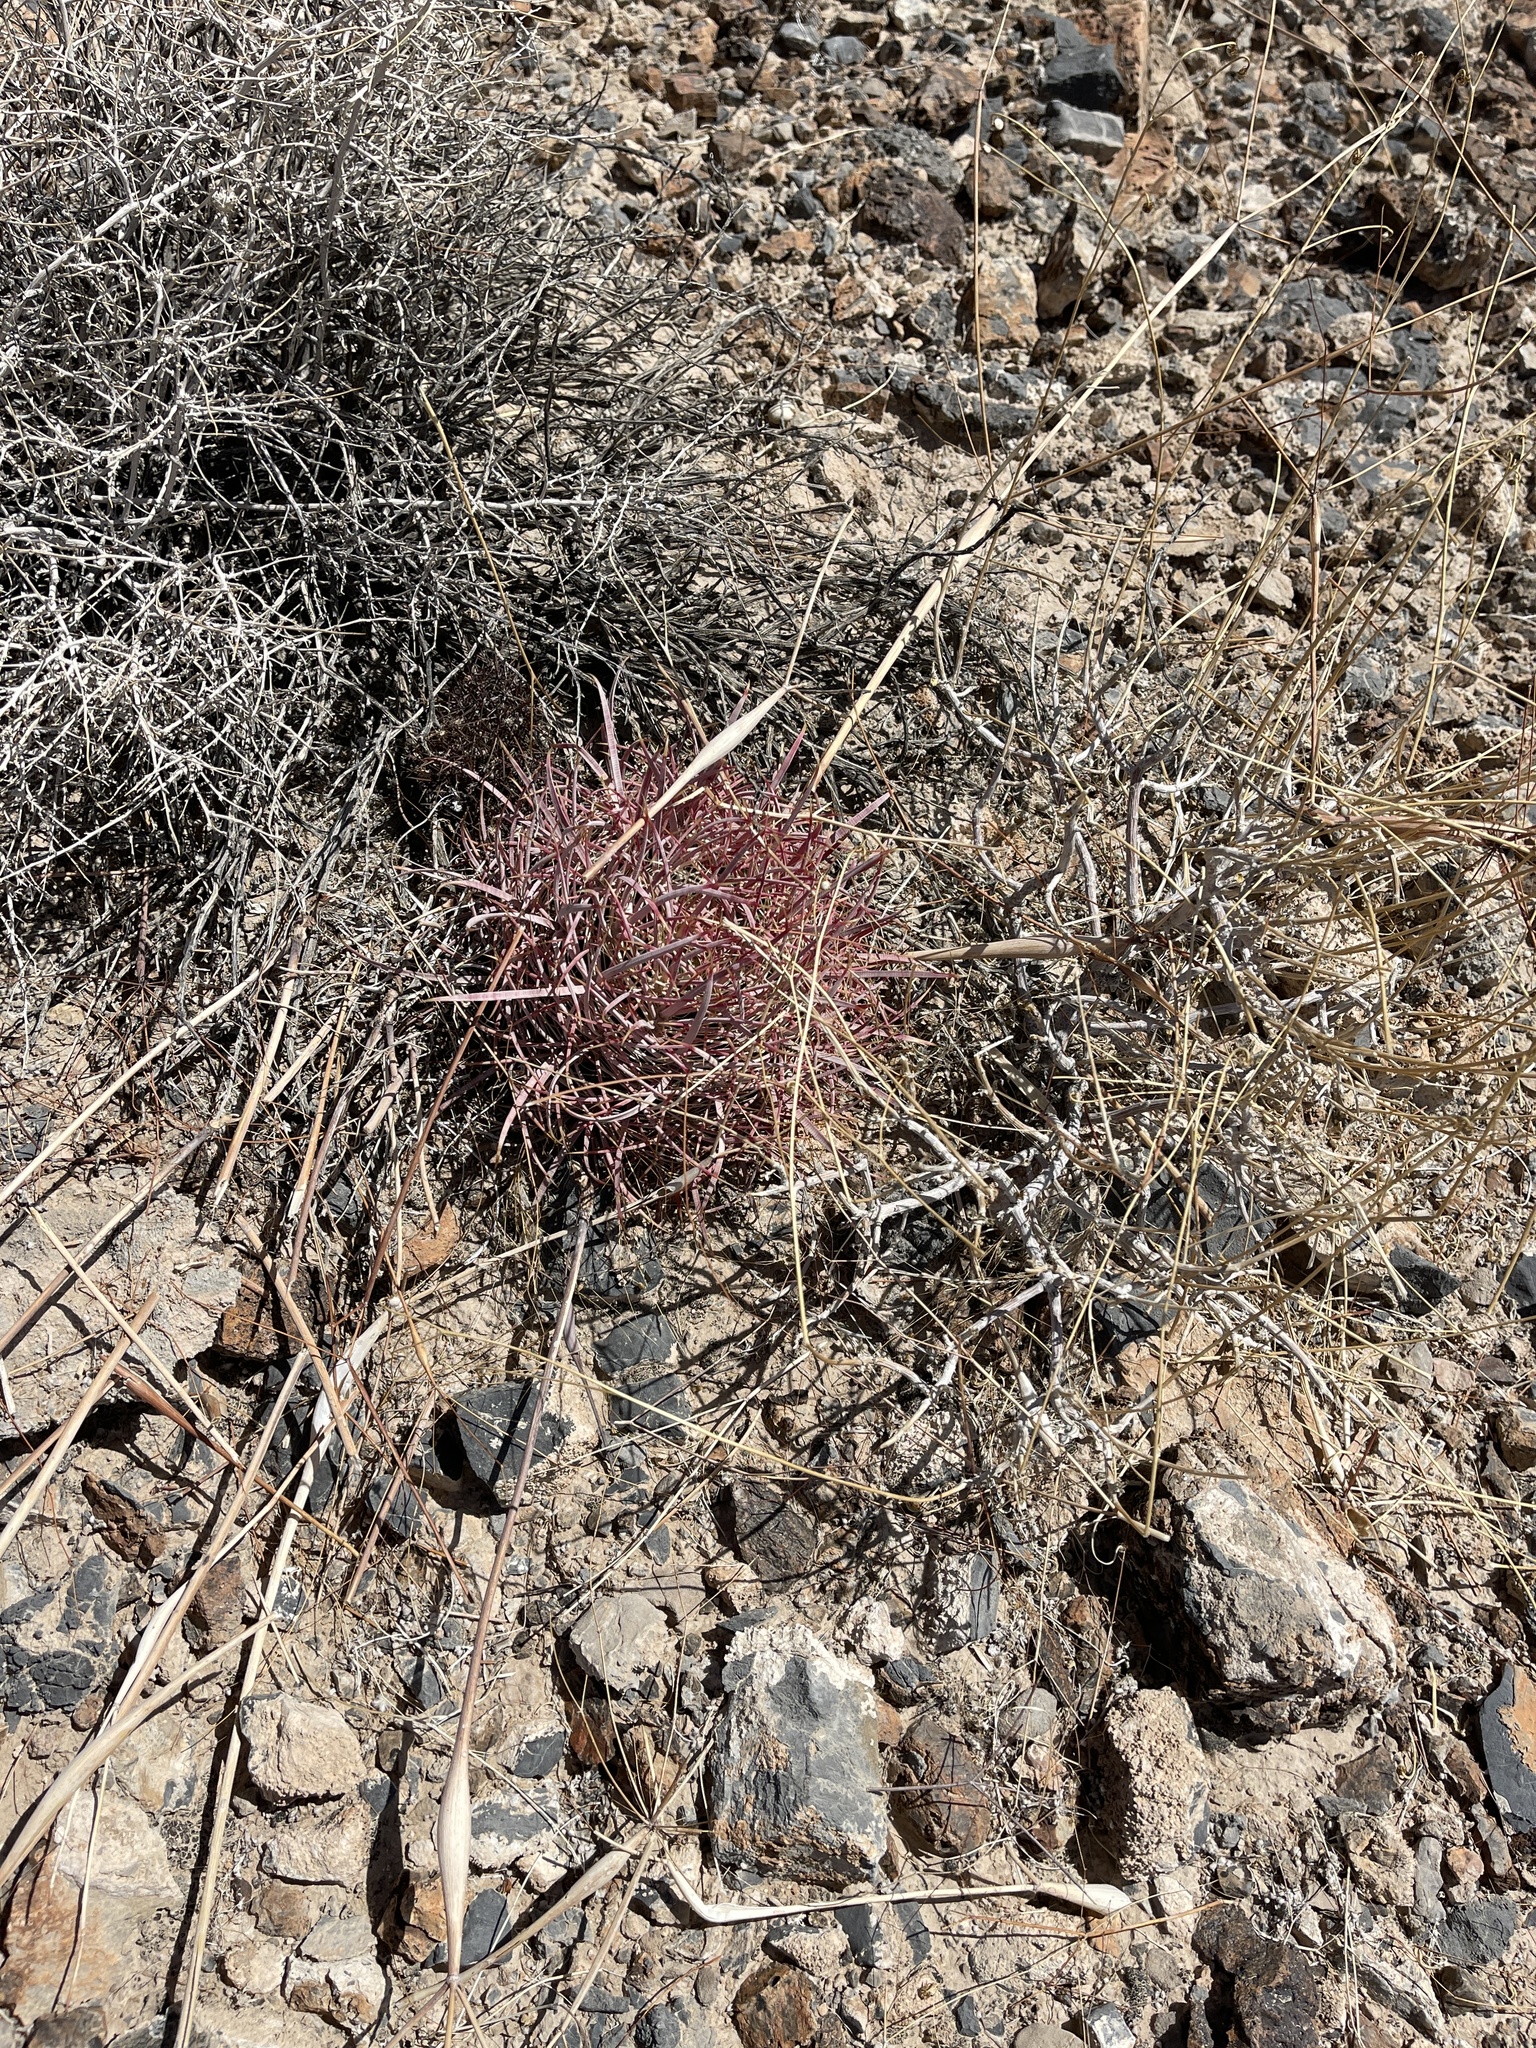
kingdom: Plantae
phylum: Tracheophyta
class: Magnoliopsida
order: Caryophyllales
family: Cactaceae
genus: Ferocactus
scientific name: Ferocactus cylindraceus
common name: California barrel cactus
